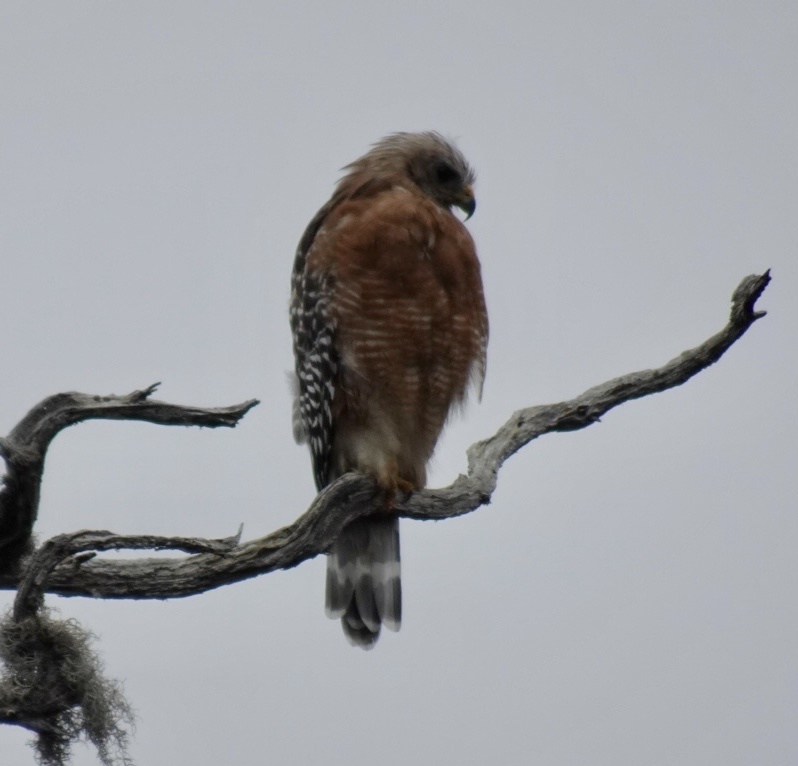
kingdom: Animalia
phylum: Chordata
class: Aves
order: Accipitriformes
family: Accipitridae
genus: Buteo
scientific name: Buteo lineatus
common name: Red-shouldered hawk
